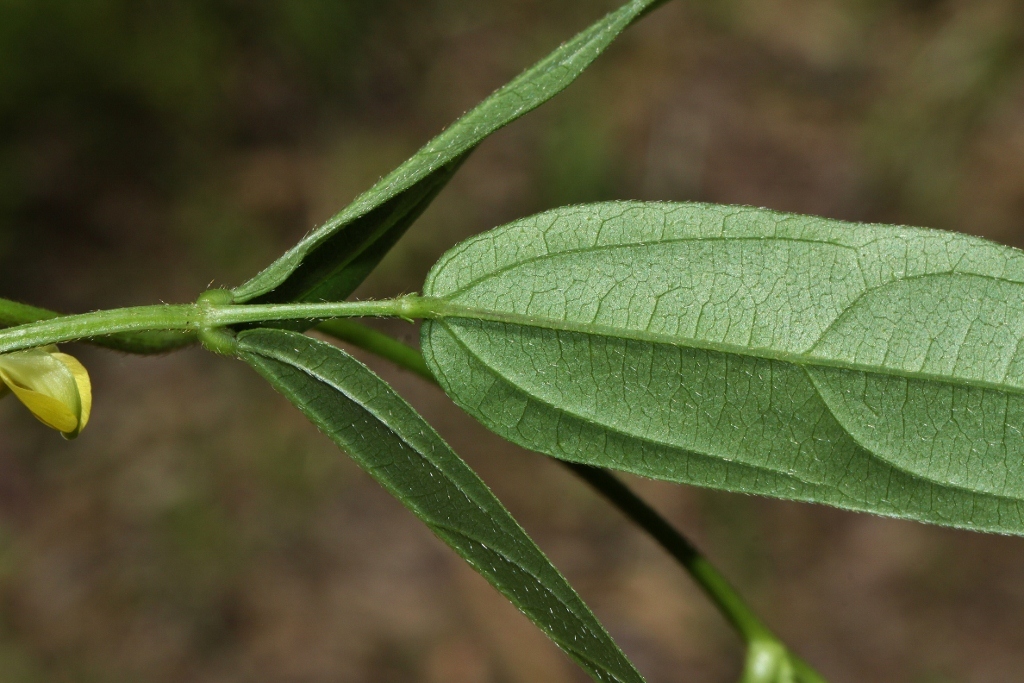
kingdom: Plantae
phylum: Tracheophyta
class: Magnoliopsida
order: Fabales
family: Fabaceae
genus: Vigna
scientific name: Vigna oblongifolia
